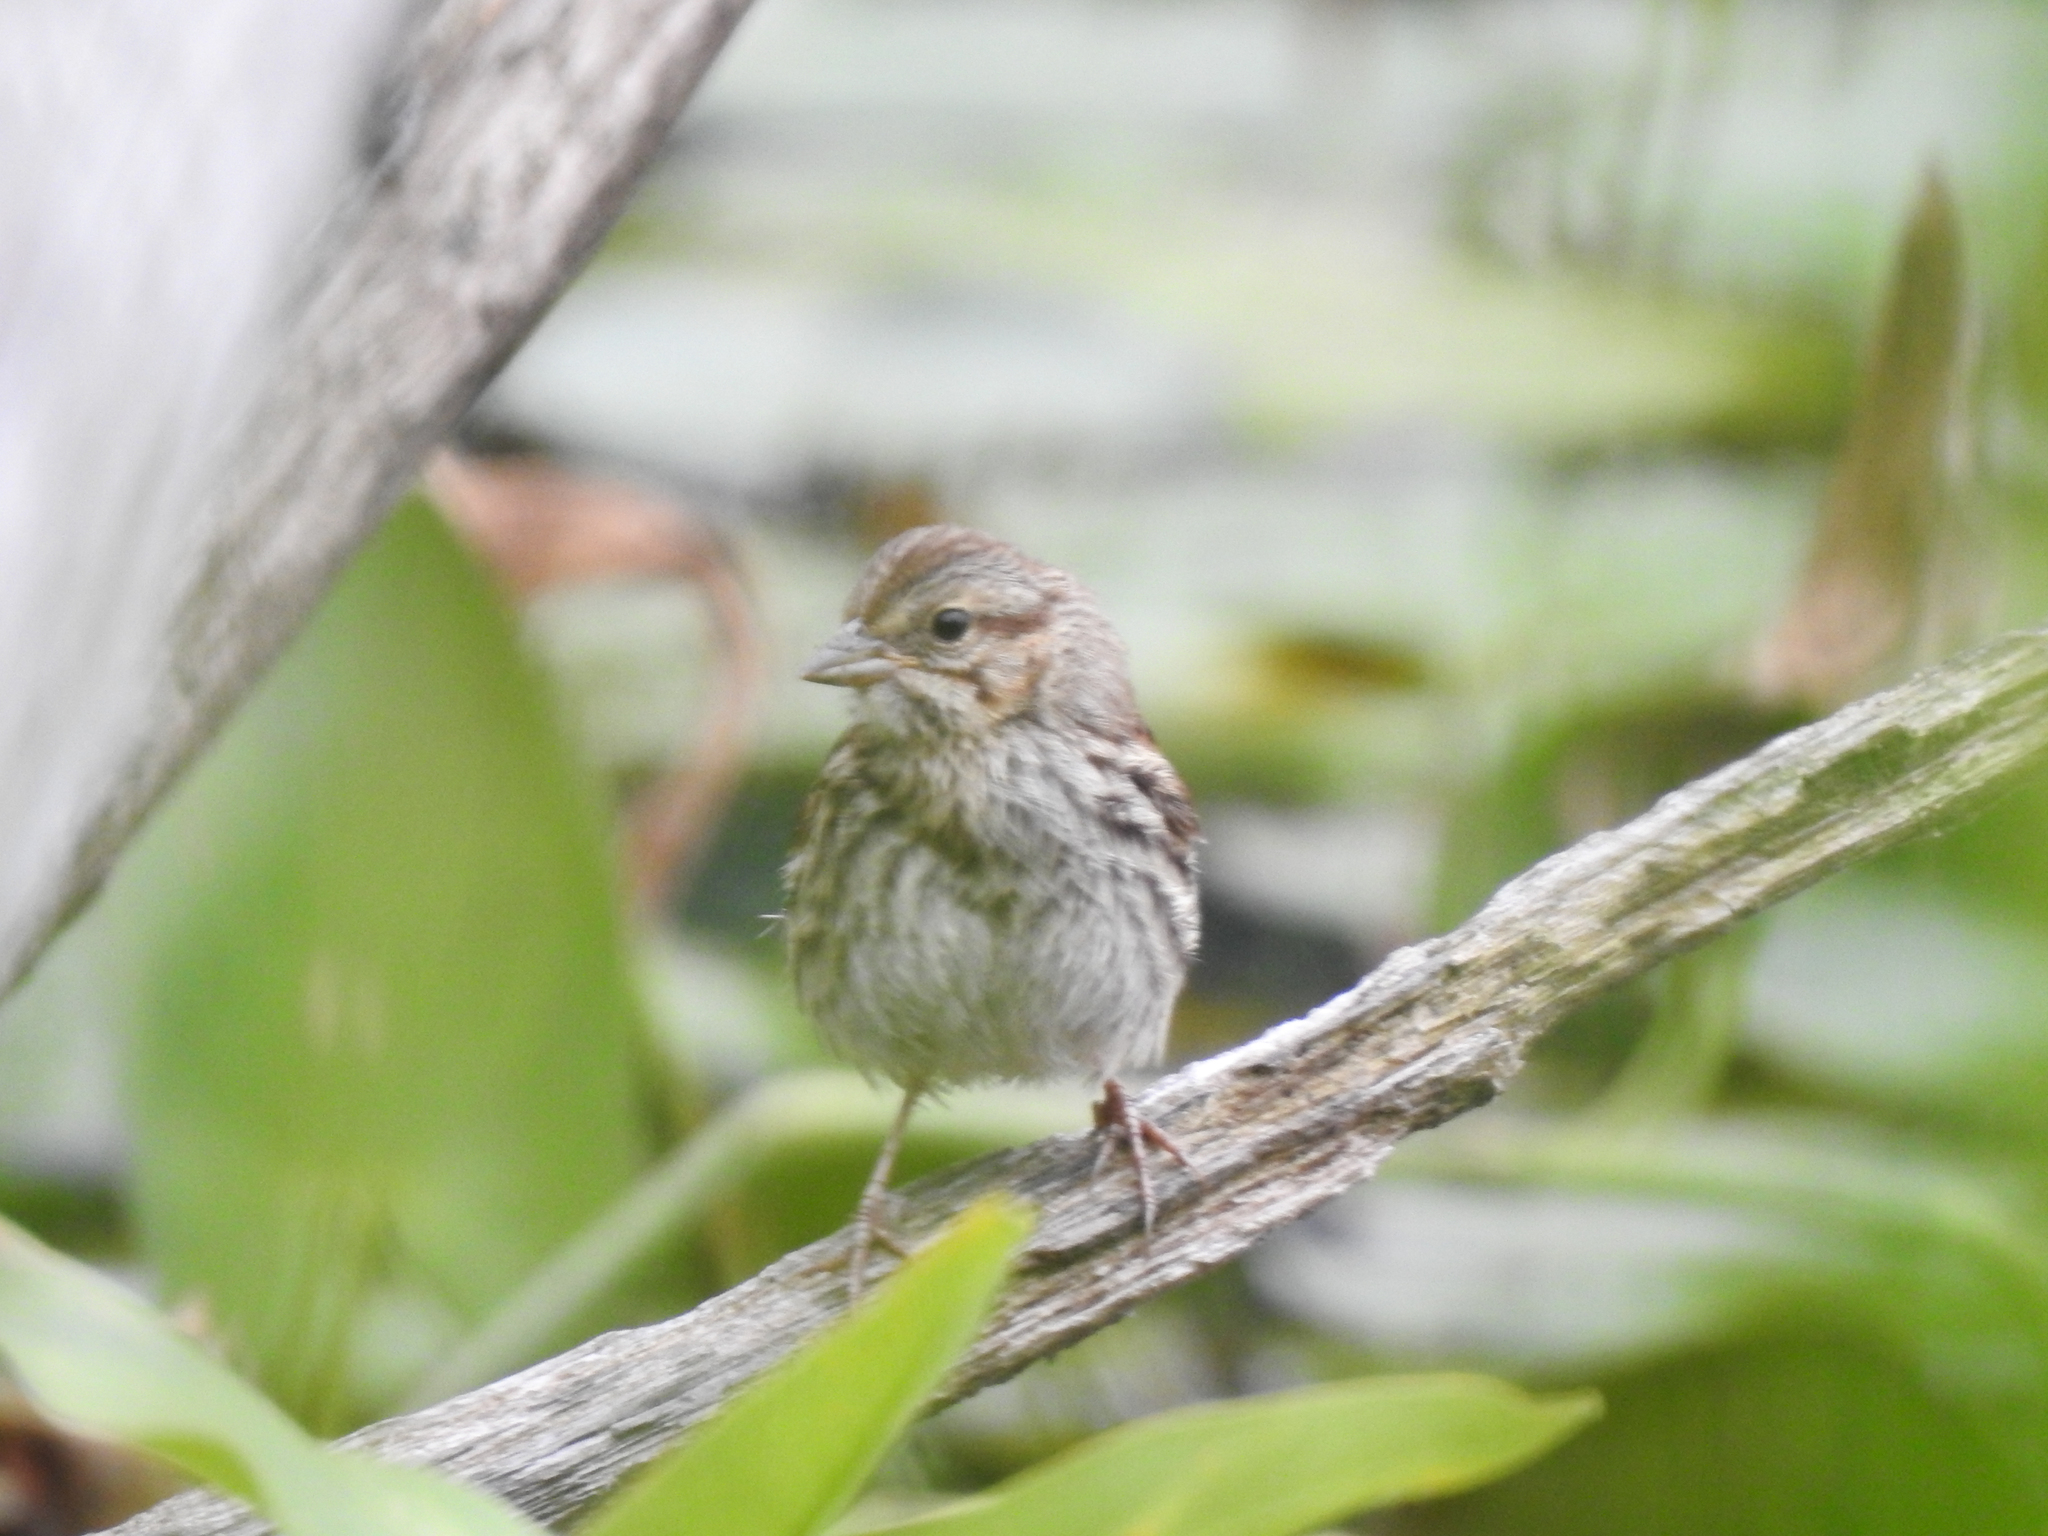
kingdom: Animalia
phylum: Chordata
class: Aves
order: Passeriformes
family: Passerellidae
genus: Melospiza
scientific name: Melospiza melodia
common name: Song sparrow
